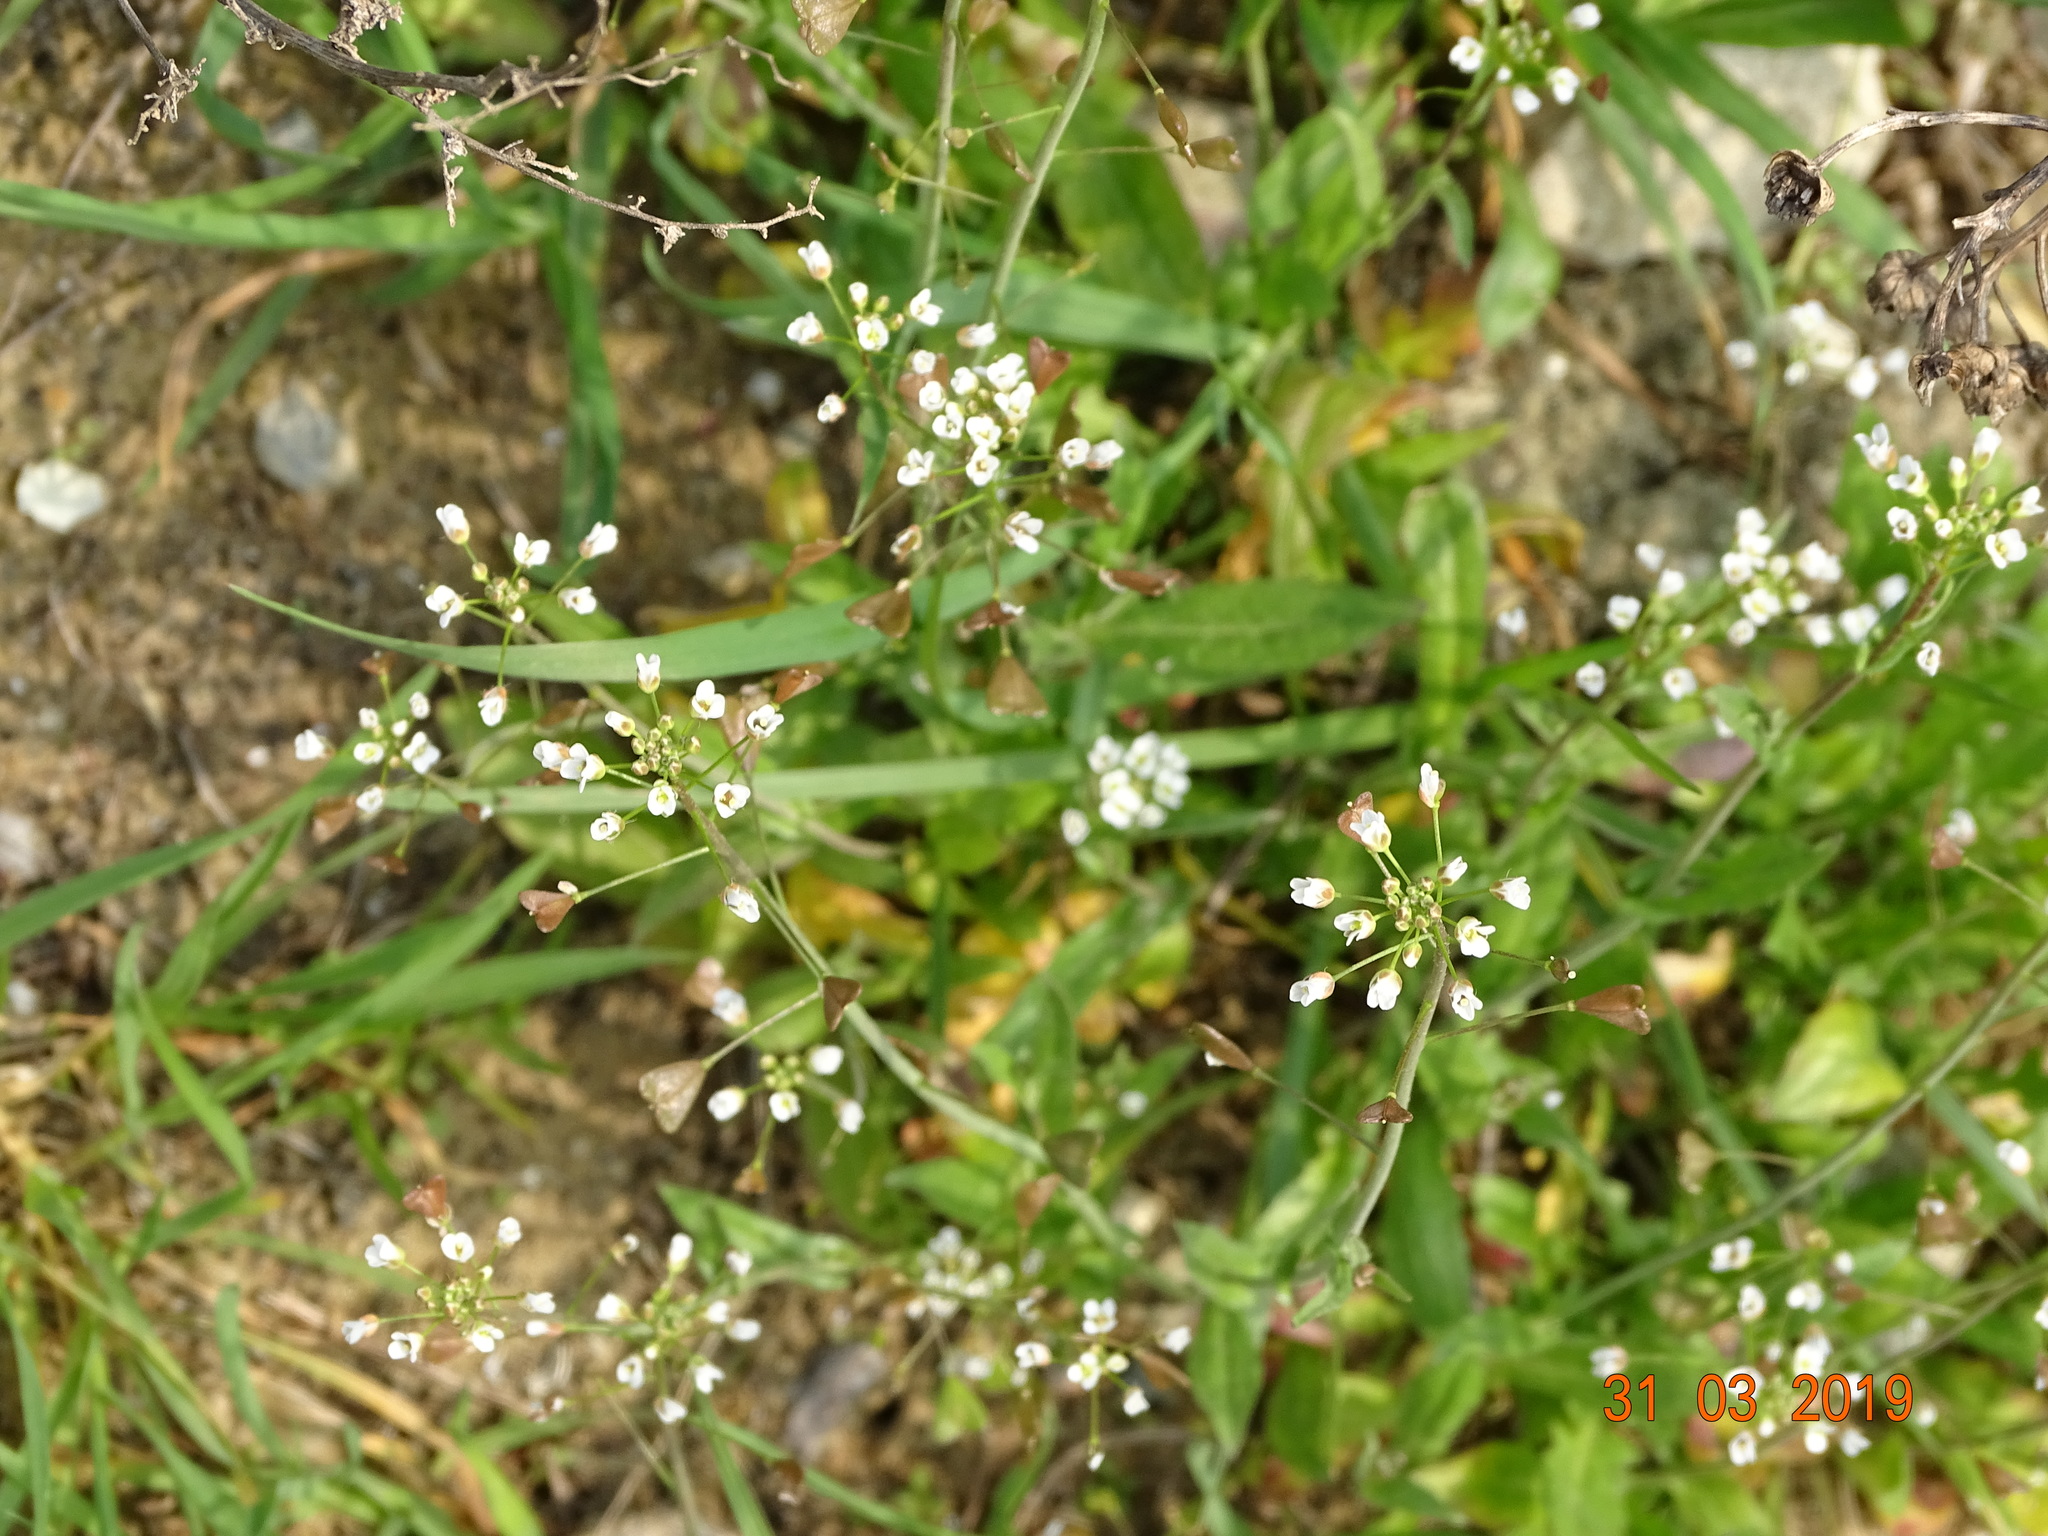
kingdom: Plantae
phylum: Tracheophyta
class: Magnoliopsida
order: Brassicales
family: Brassicaceae
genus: Capsella
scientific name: Capsella bursa-pastoris
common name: Shepherd's purse
